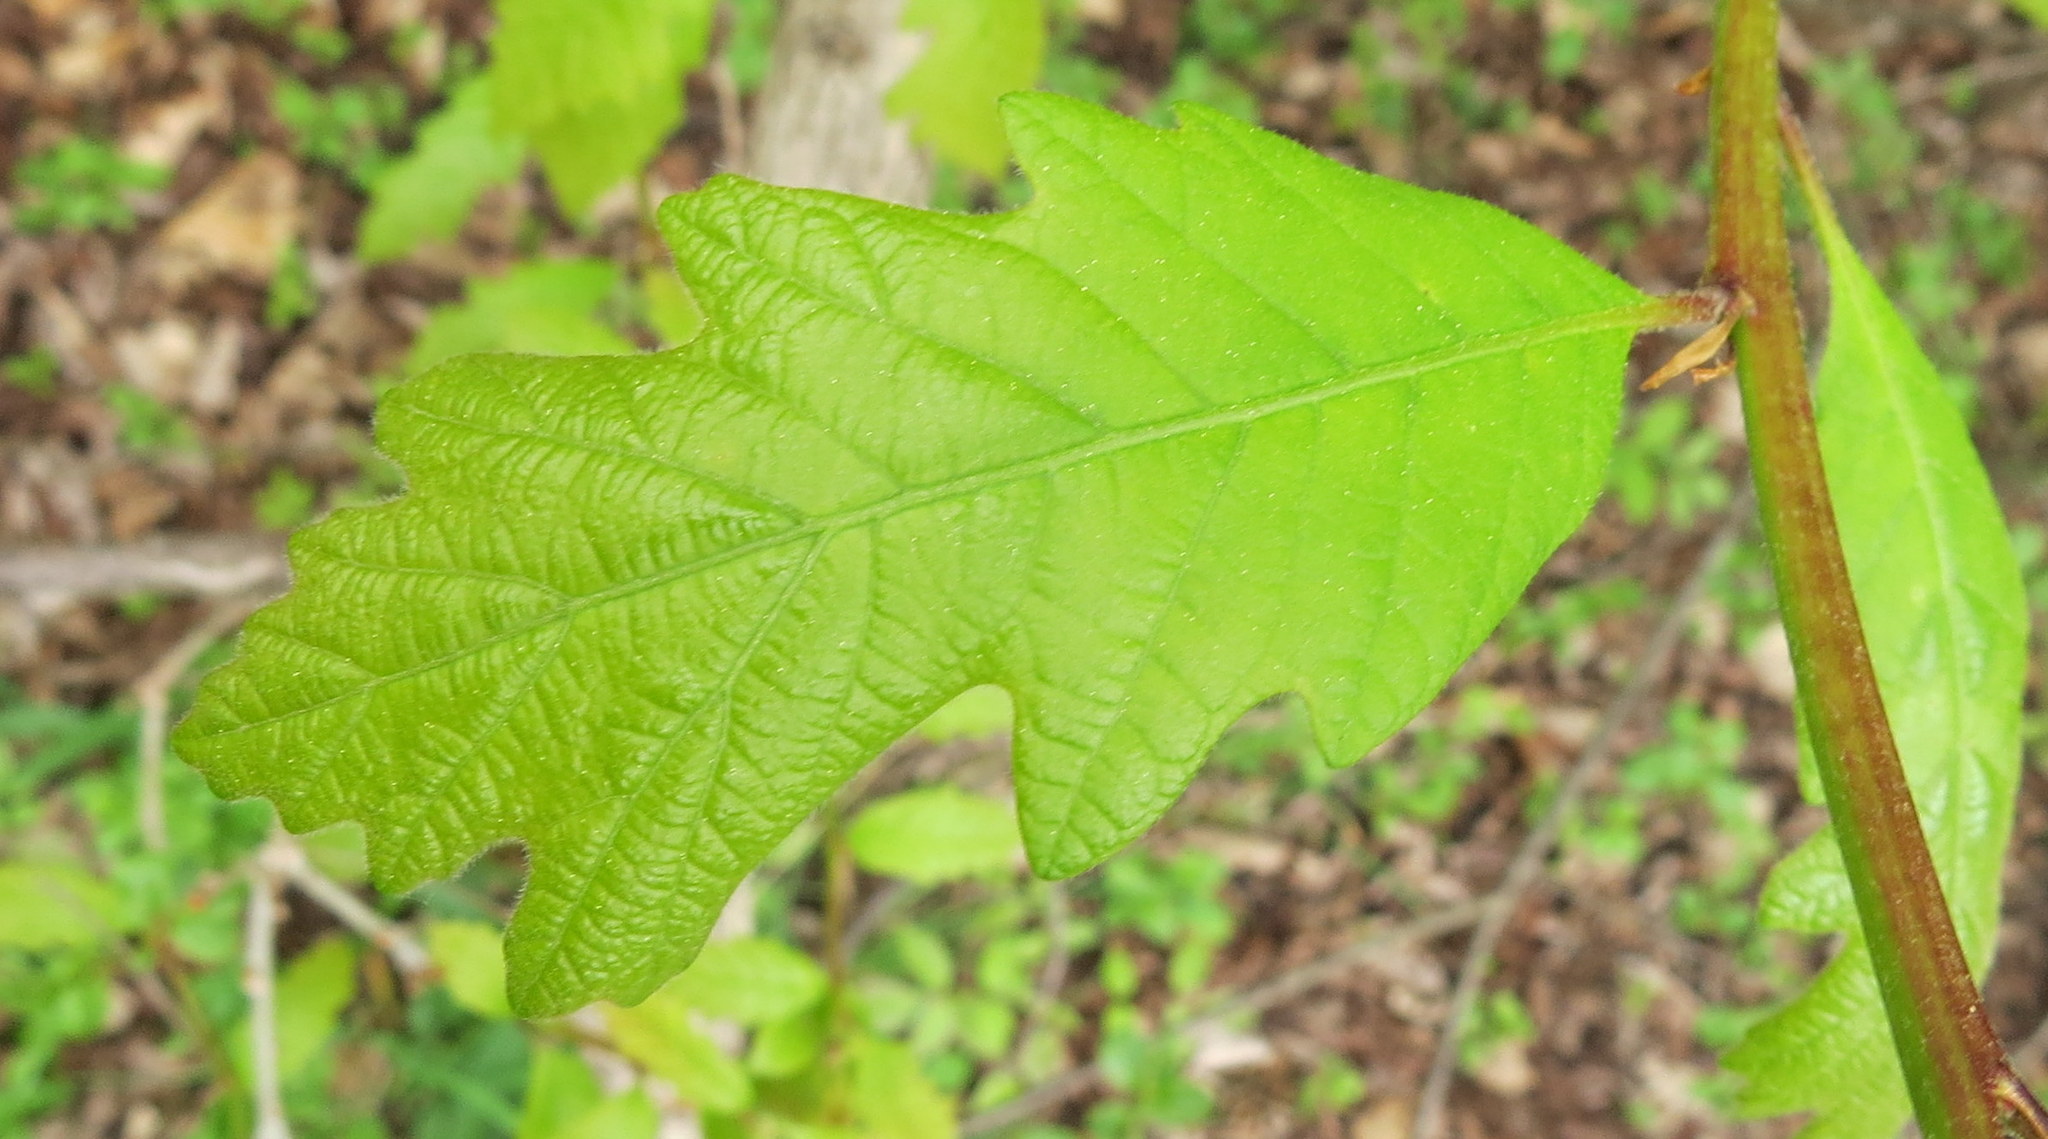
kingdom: Plantae
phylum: Tracheophyta
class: Magnoliopsida
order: Fagales
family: Fagaceae
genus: Quercus
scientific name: Quercus bicolor
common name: Swamp white oak
